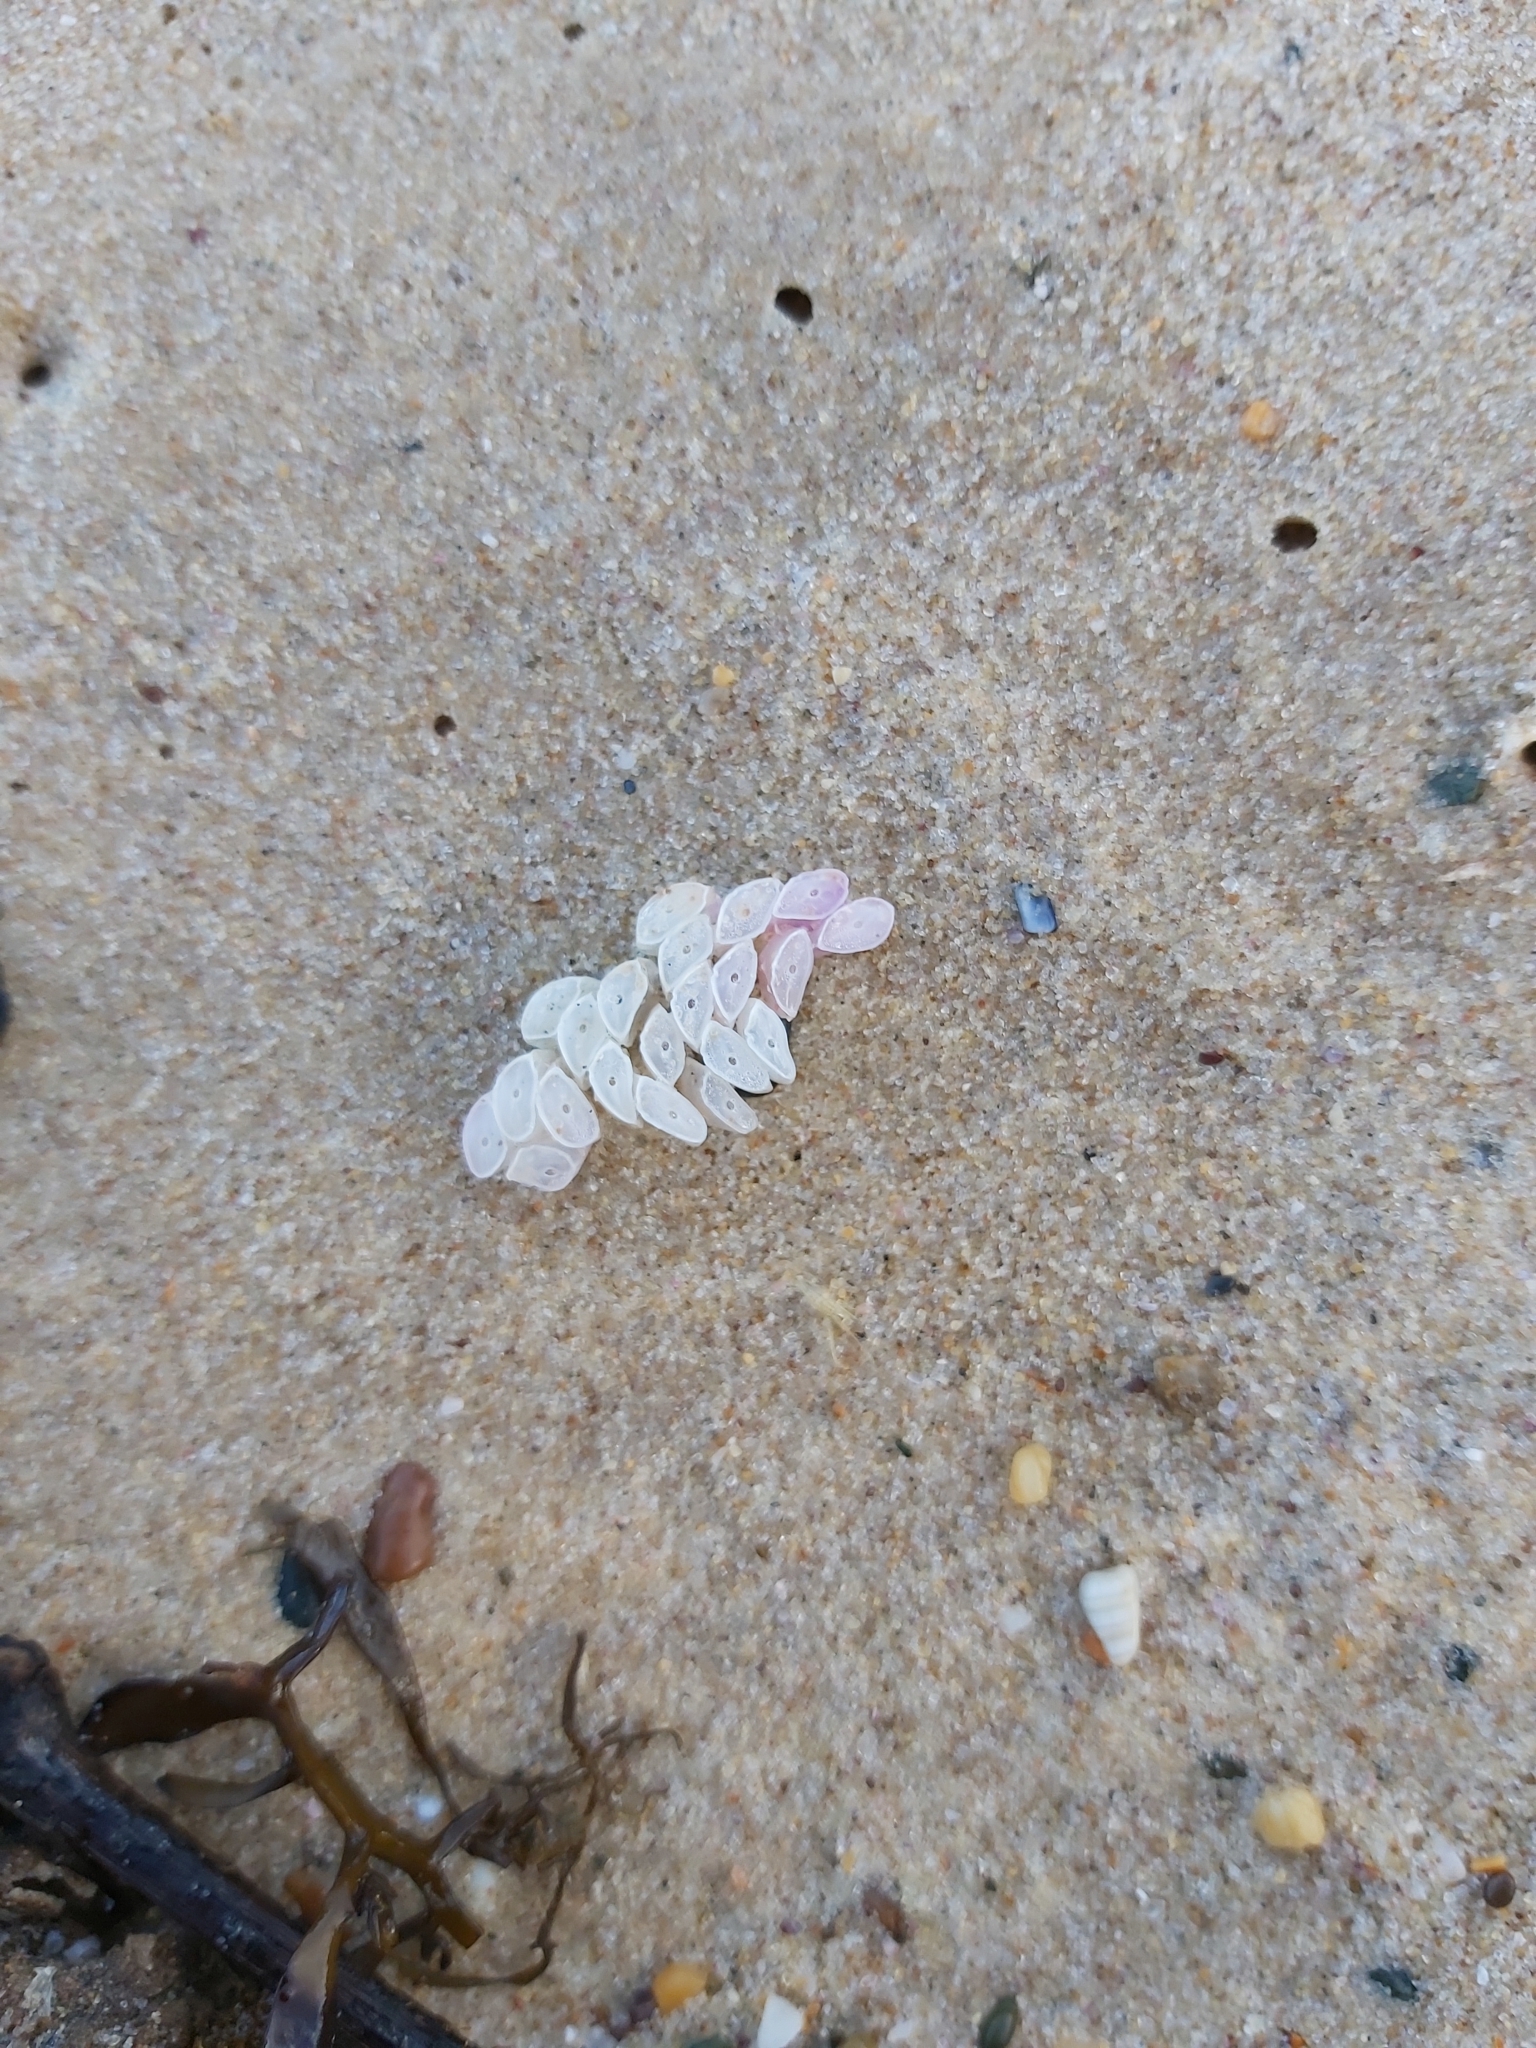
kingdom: Animalia
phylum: Mollusca
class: Gastropoda
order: Neogastropoda
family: Muricidae
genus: Dicathais
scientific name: Dicathais orbita
